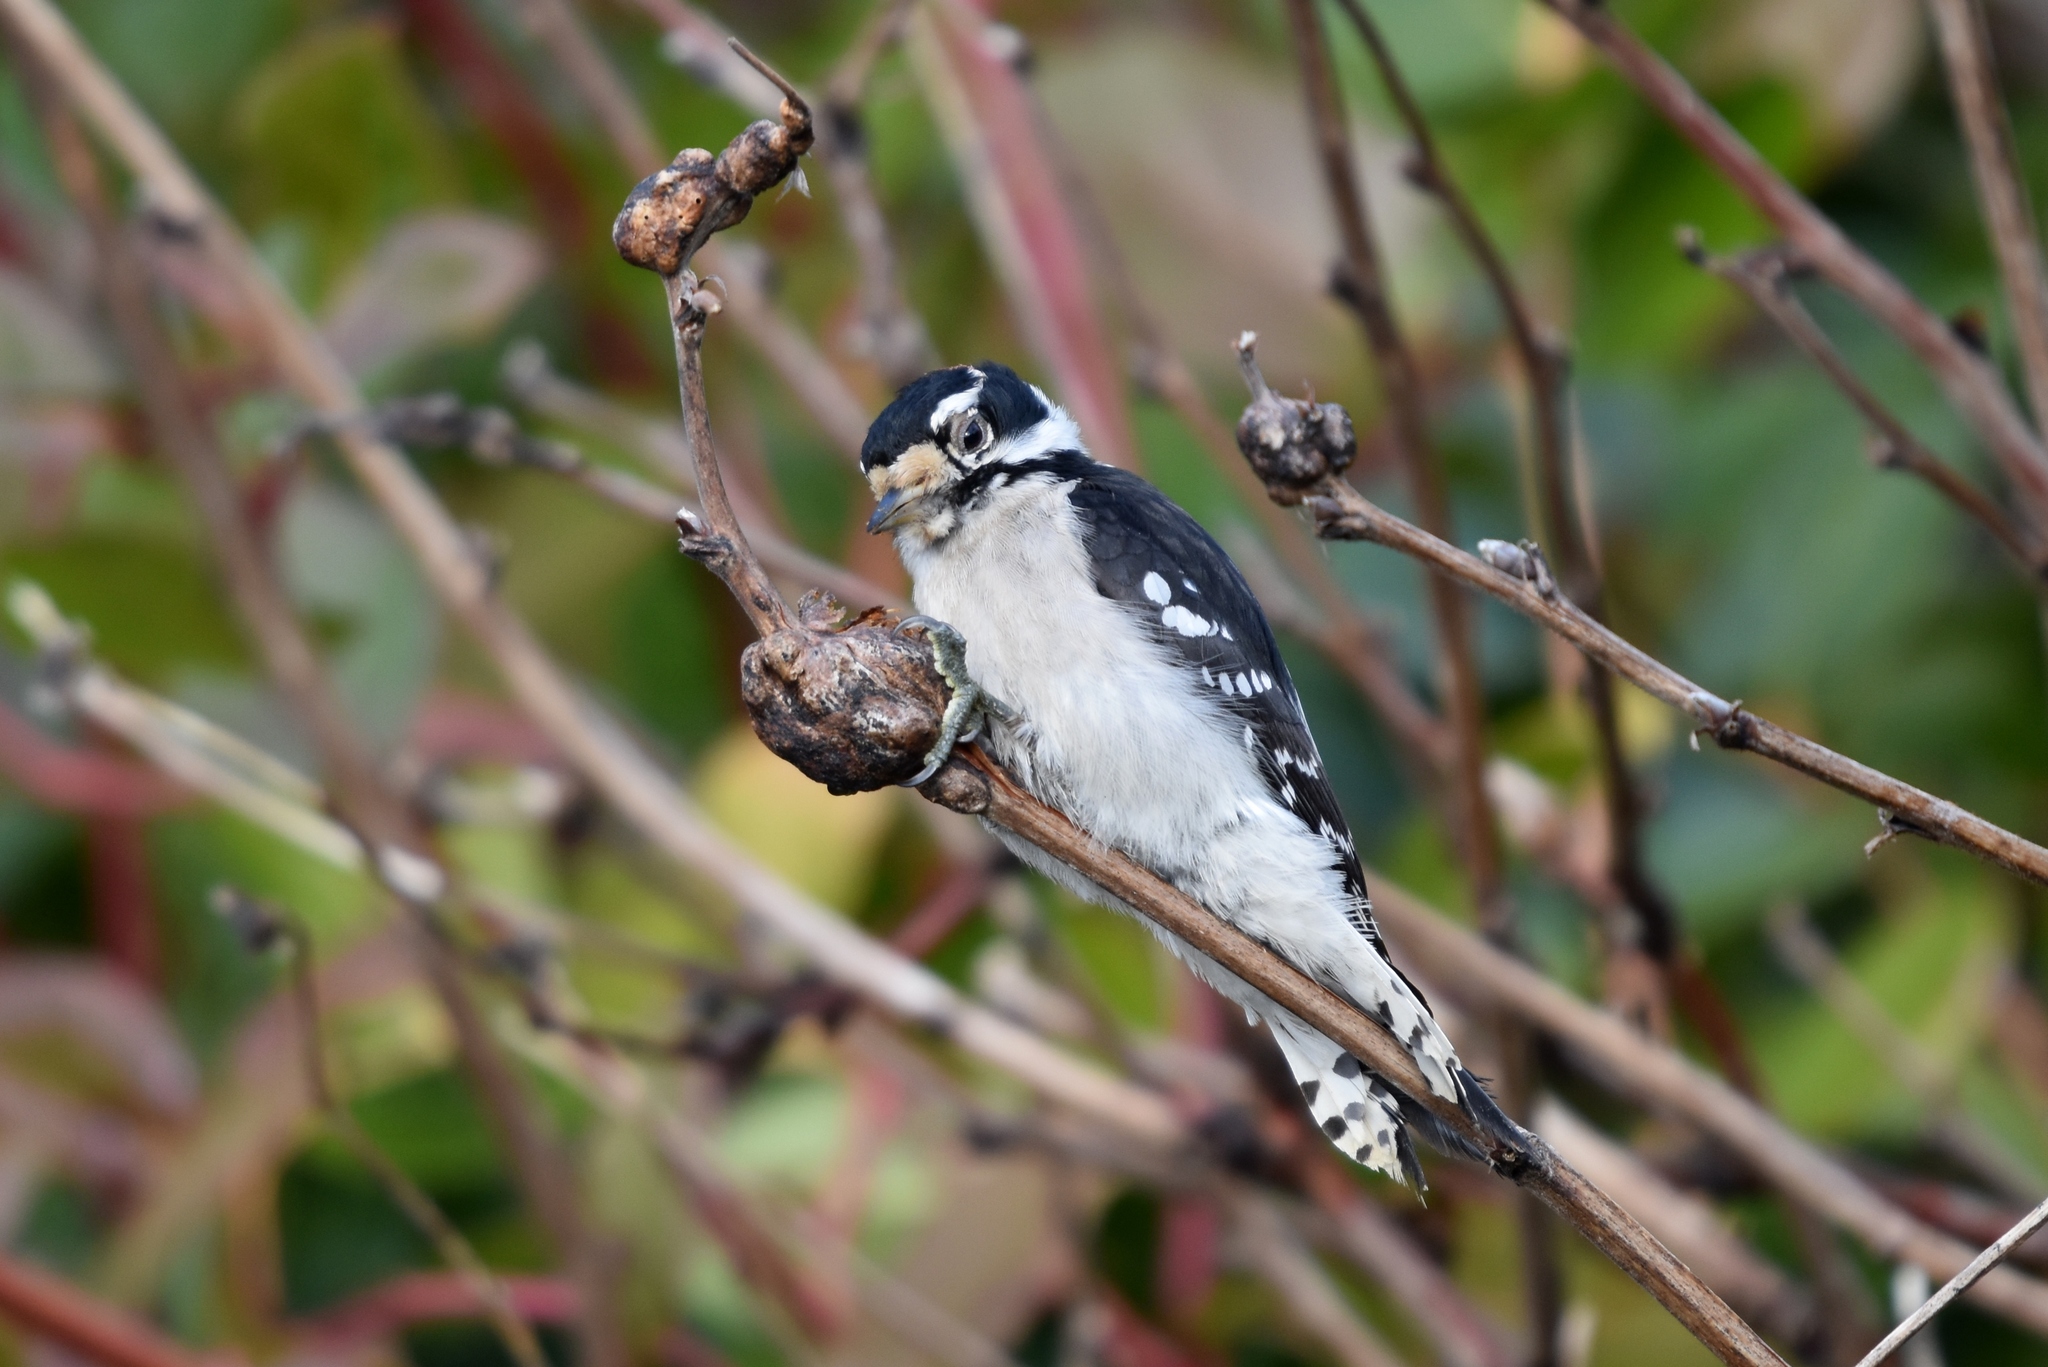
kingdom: Animalia
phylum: Chordata
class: Aves
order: Piciformes
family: Picidae
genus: Dryobates
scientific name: Dryobates pubescens
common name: Downy woodpecker
